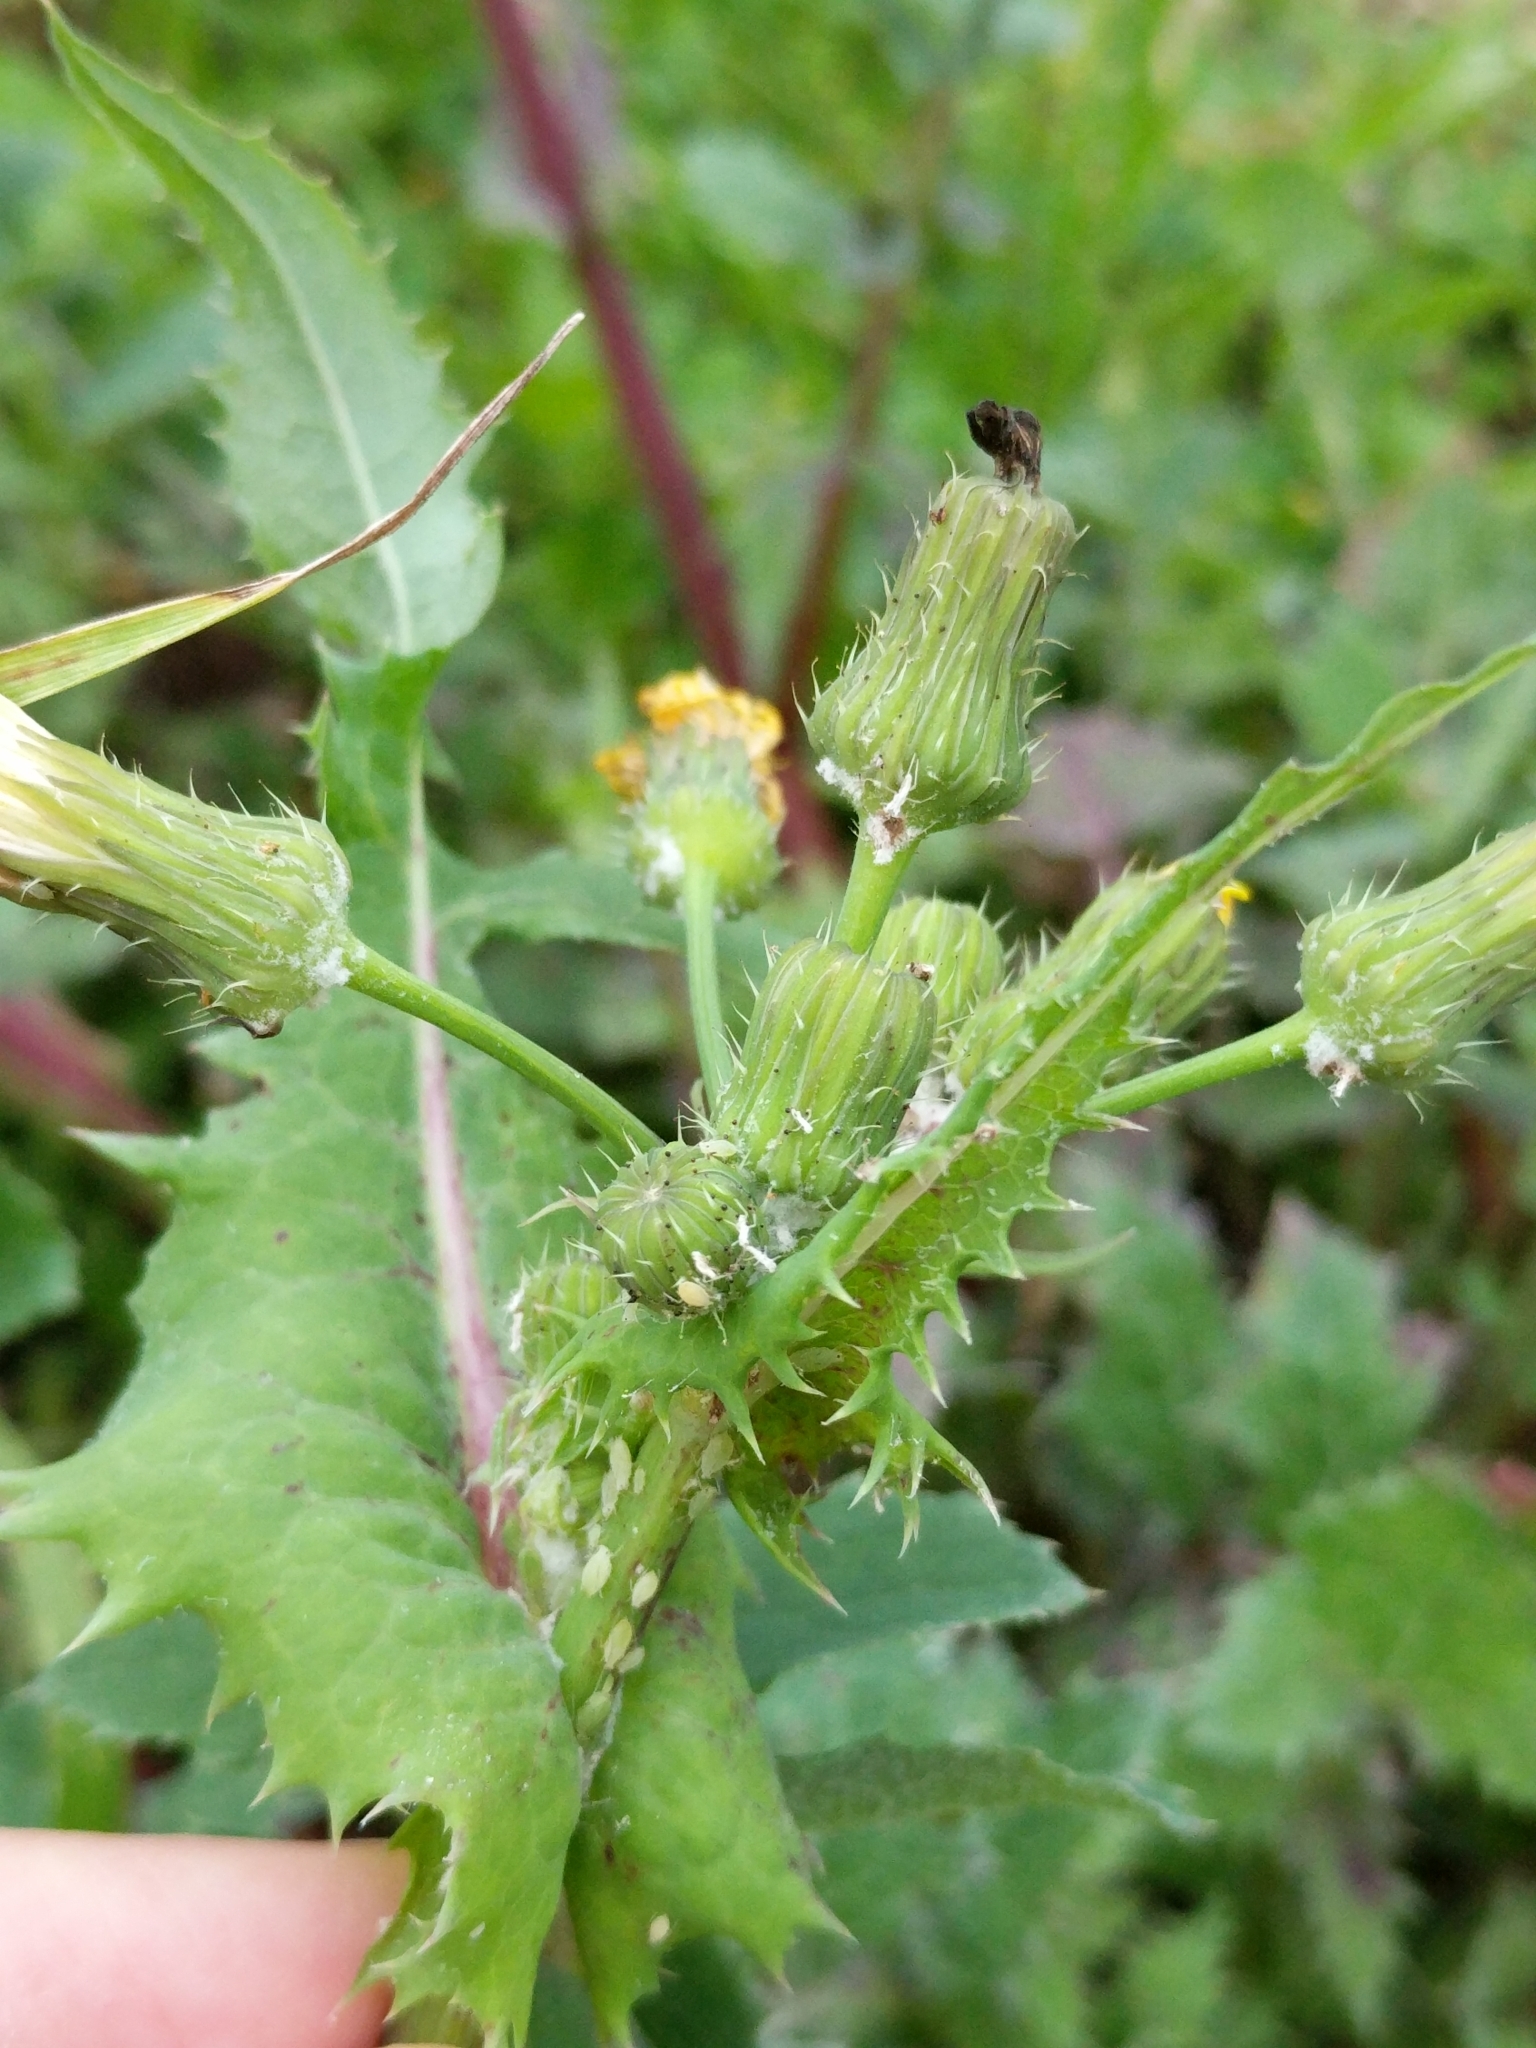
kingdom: Plantae
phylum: Tracheophyta
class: Magnoliopsida
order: Asterales
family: Asteraceae
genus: Sonchus
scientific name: Sonchus oleraceus
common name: Common sowthistle
